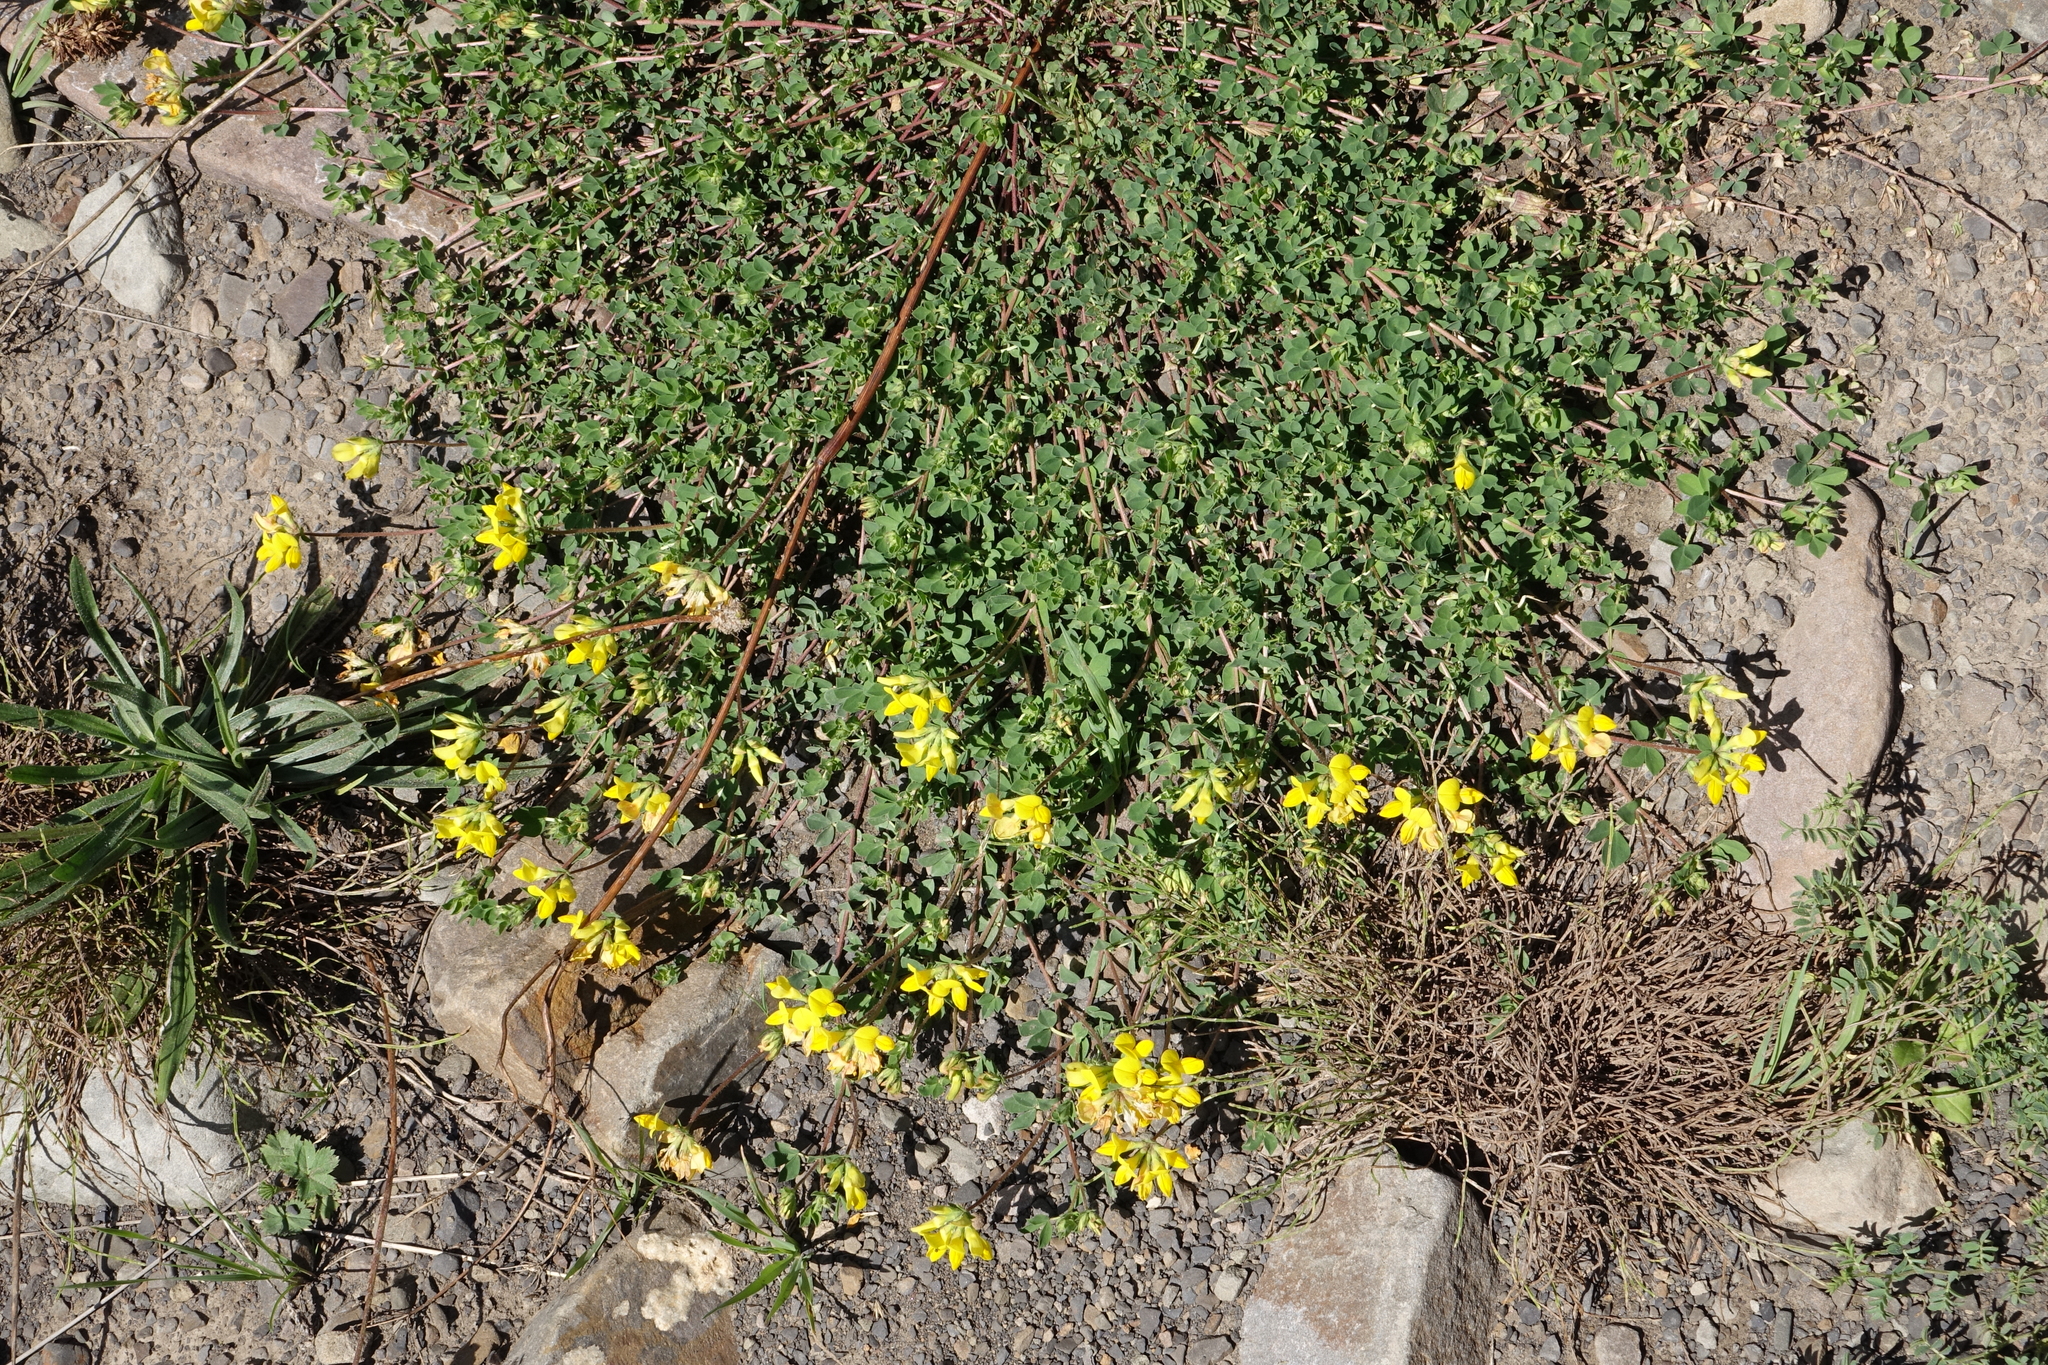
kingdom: Plantae
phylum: Tracheophyta
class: Magnoliopsida
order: Fabales
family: Fabaceae
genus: Lotus
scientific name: Lotus corniculatus
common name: Common bird's-foot-trefoil
